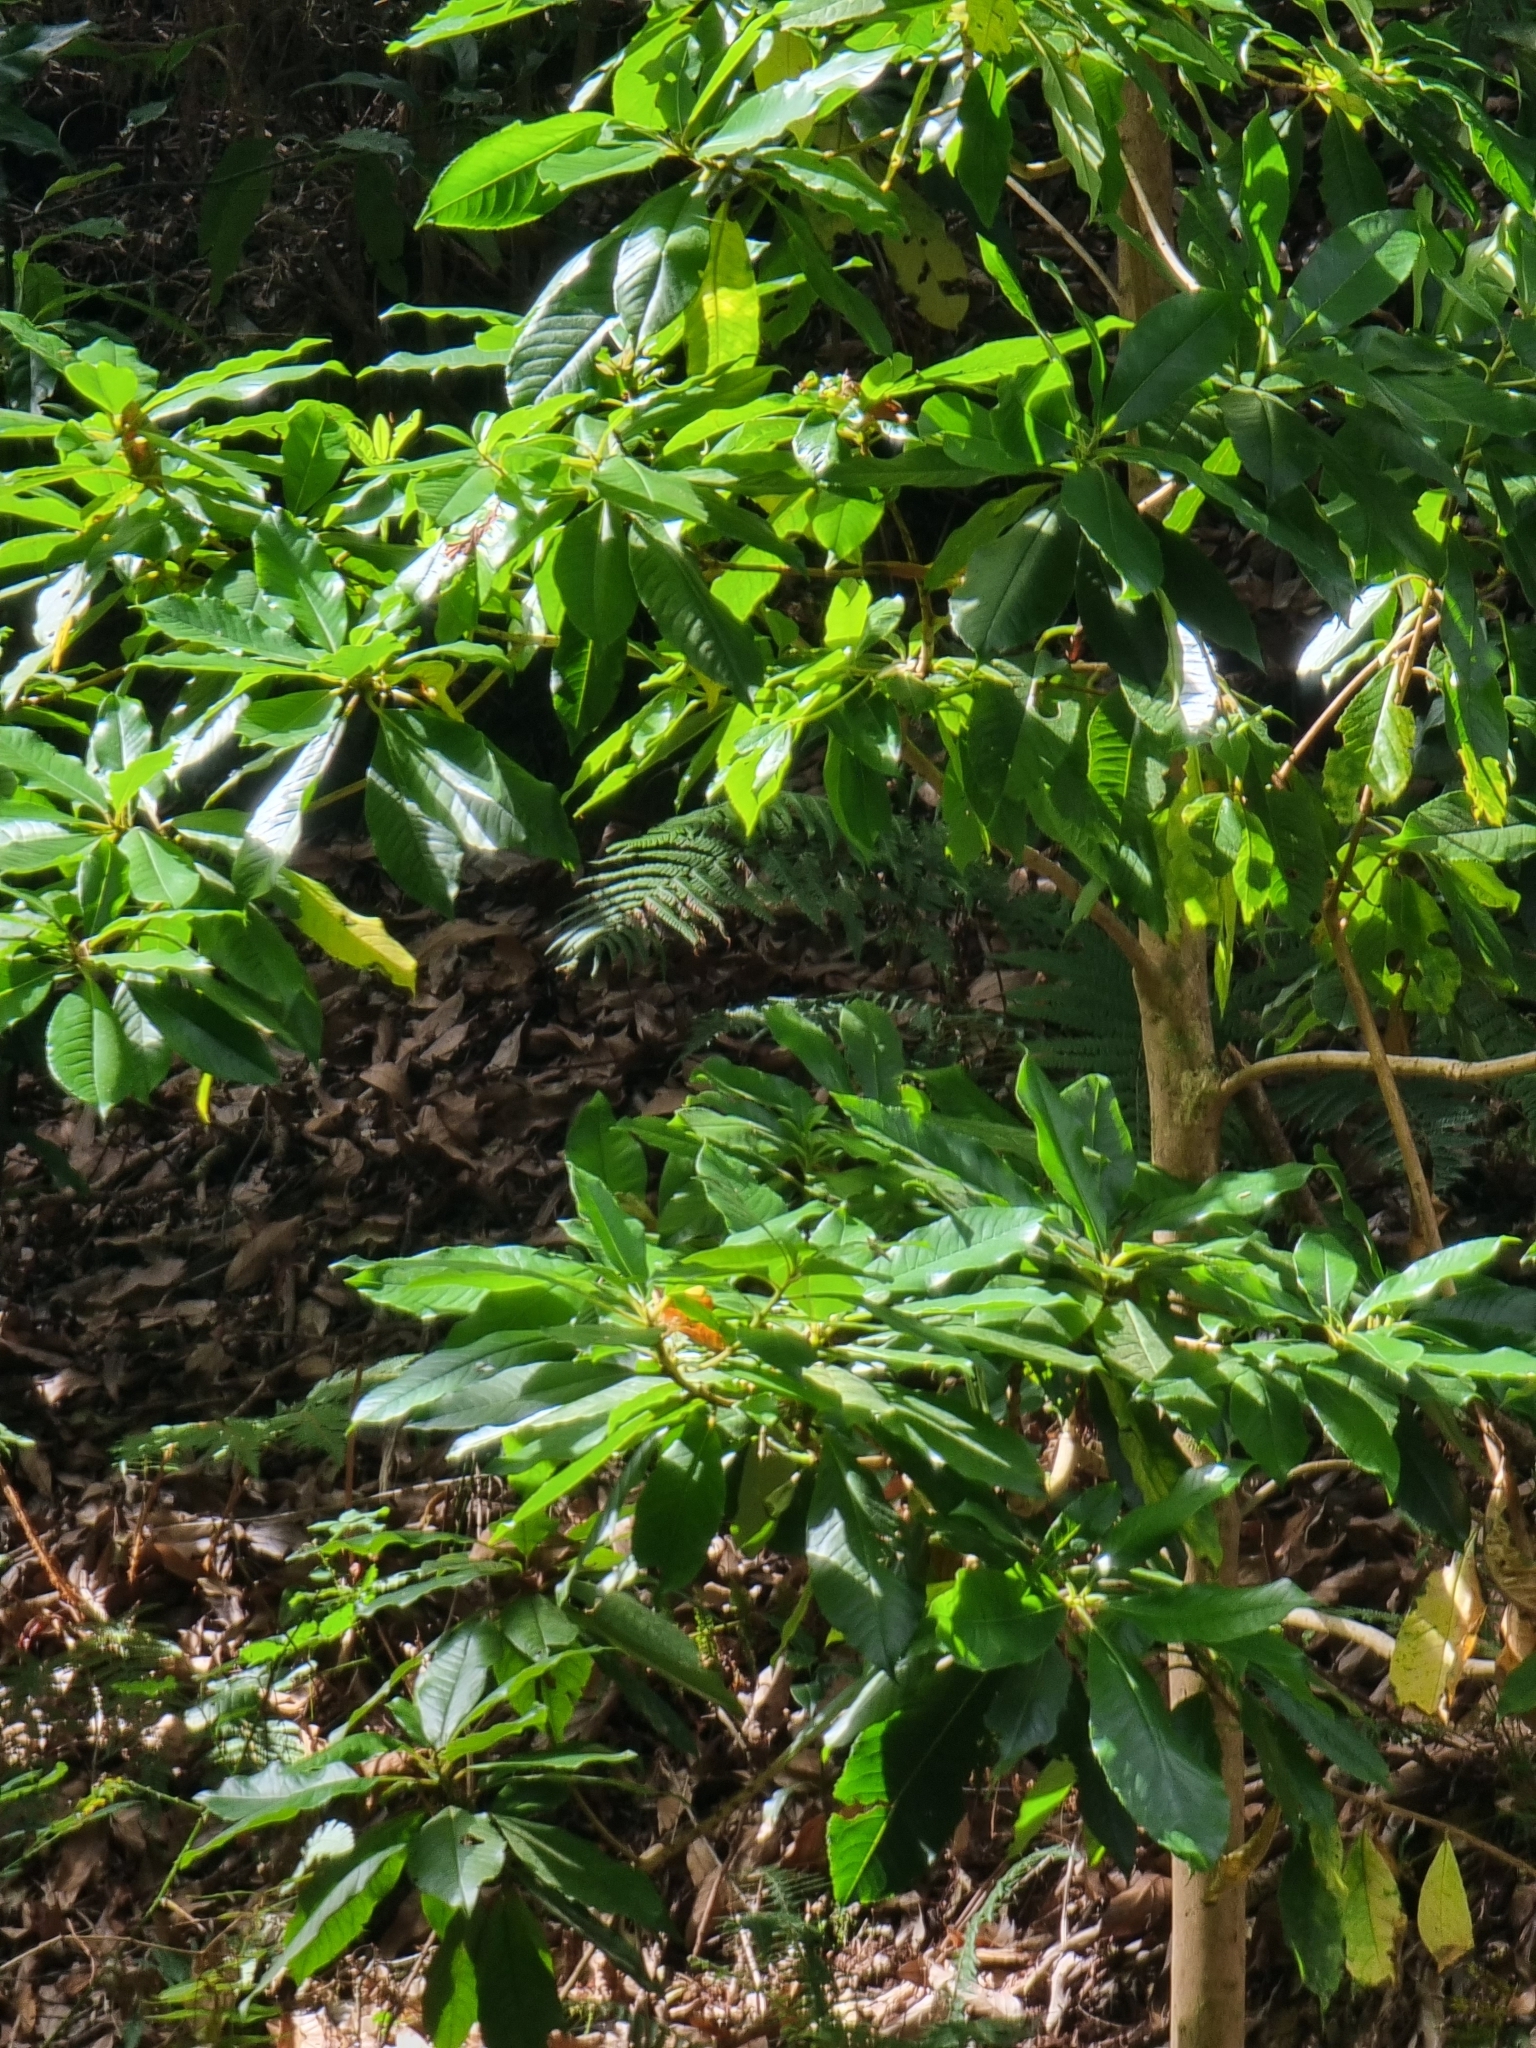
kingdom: Plantae
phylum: Tracheophyta
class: Magnoliopsida
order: Ericales
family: Clethraceae
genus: Clethra
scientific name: Clethra arborea
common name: Lily-of-the-valley-tree
